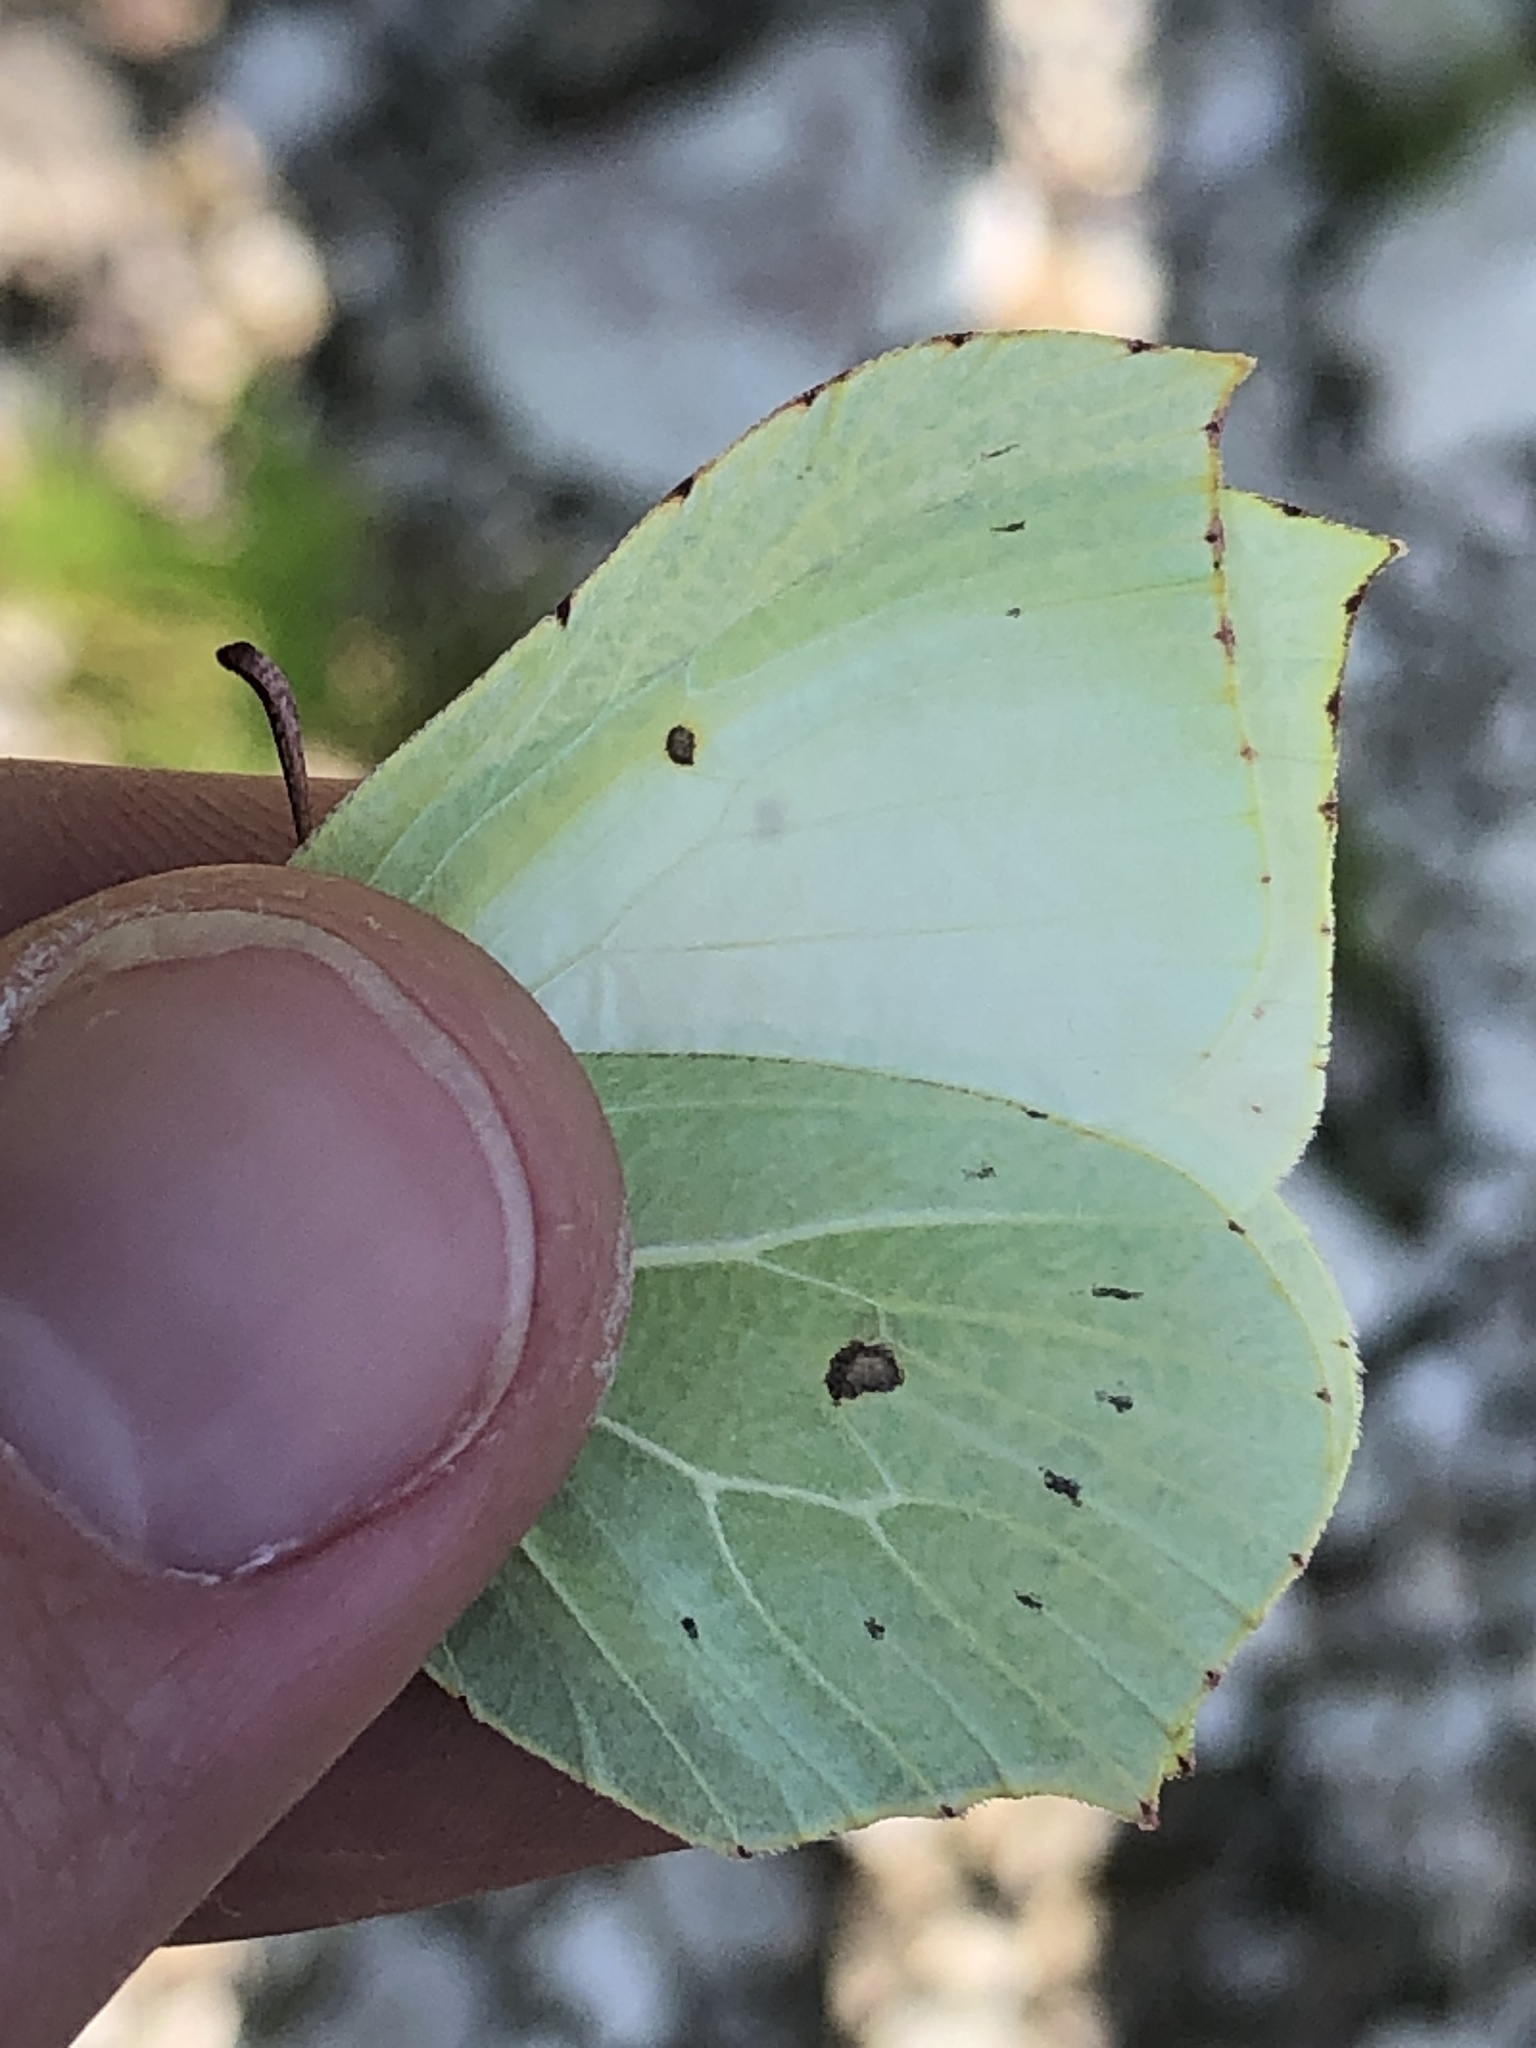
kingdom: Animalia
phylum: Arthropoda
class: Insecta
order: Lepidoptera
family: Pieridae
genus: Gonepteryx
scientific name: Gonepteryx rhamni
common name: Brimstone
